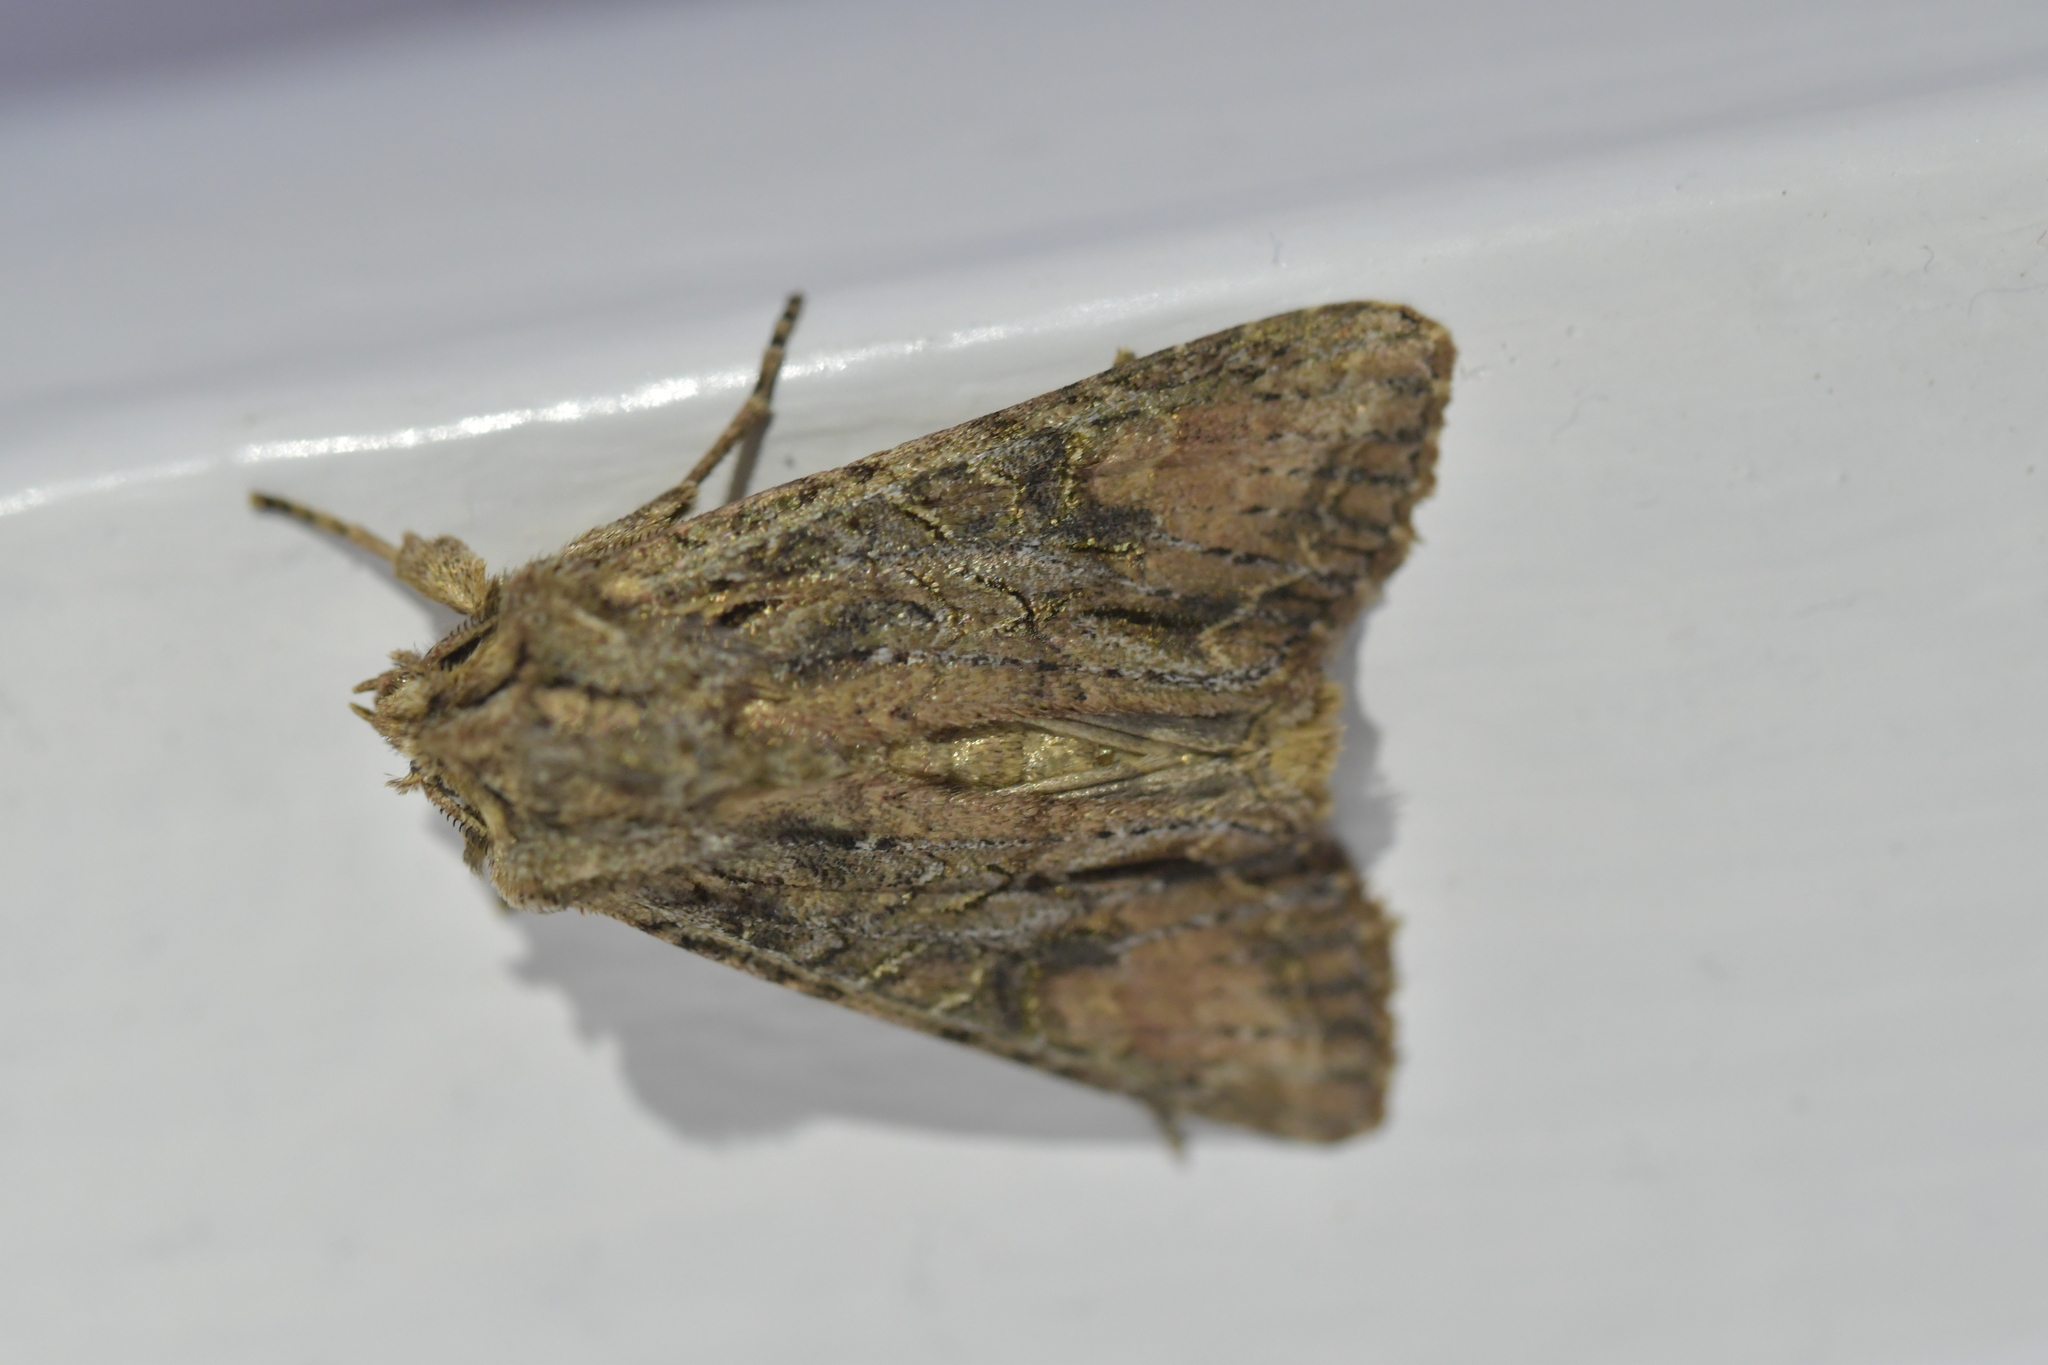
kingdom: Animalia
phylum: Arthropoda
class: Insecta
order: Lepidoptera
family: Noctuidae
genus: Ichneutica
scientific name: Ichneutica mutans
